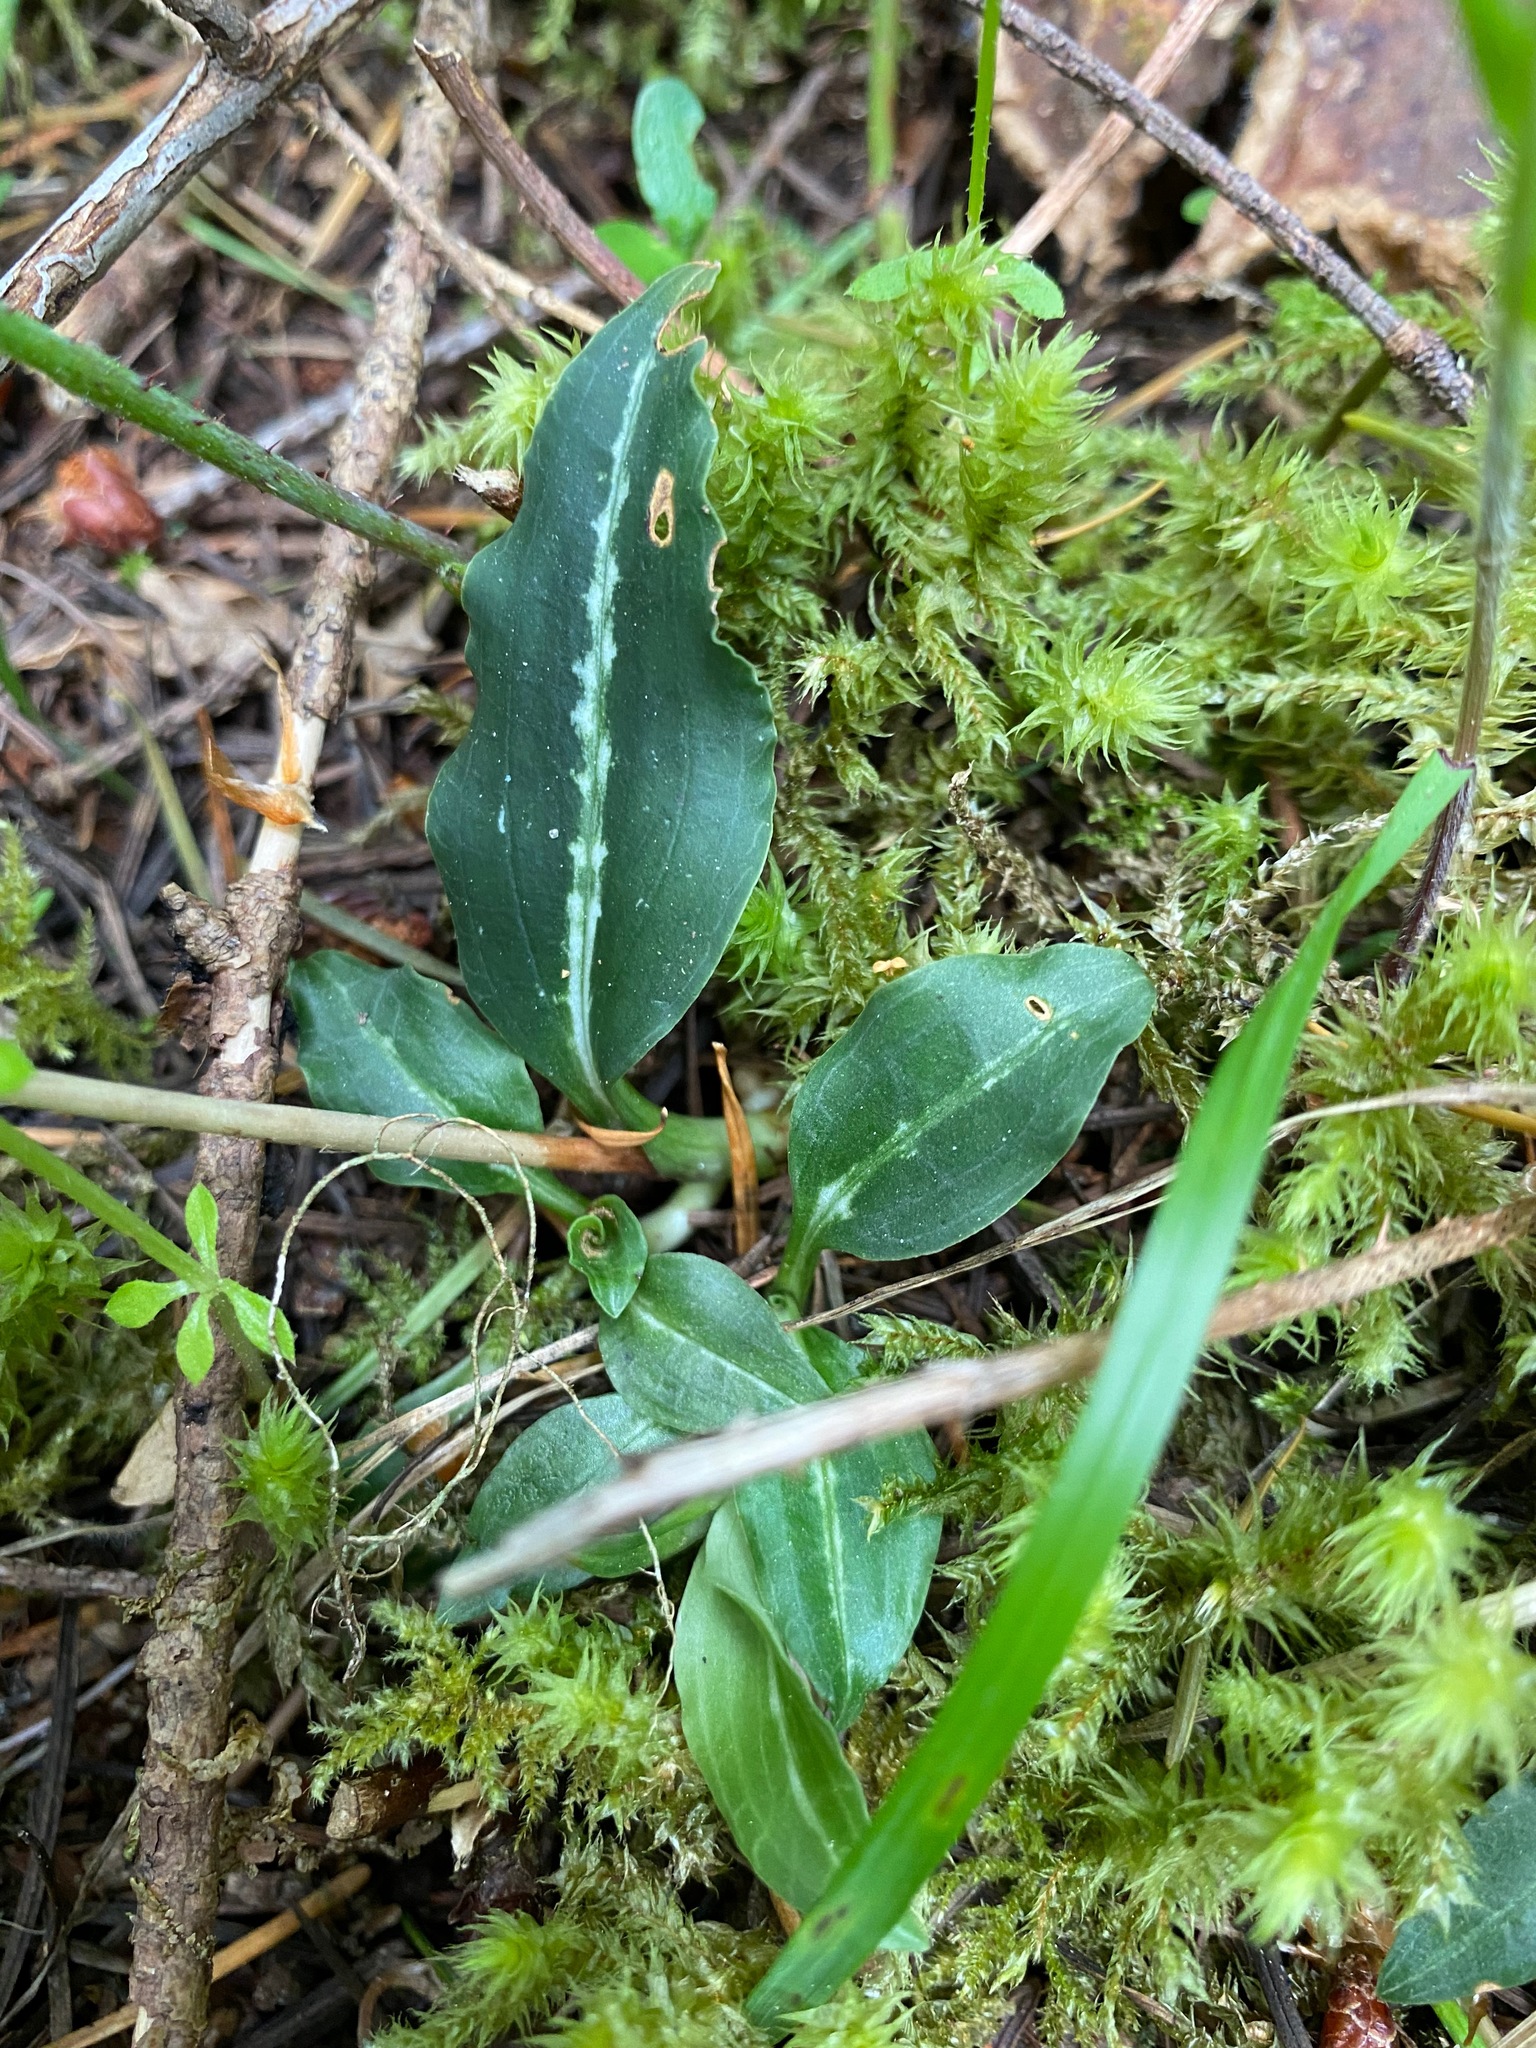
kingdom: Plantae
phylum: Tracheophyta
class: Liliopsida
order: Asparagales
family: Orchidaceae
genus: Goodyera
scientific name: Goodyera oblongifolia
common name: Giant rattlesnake-plantain
